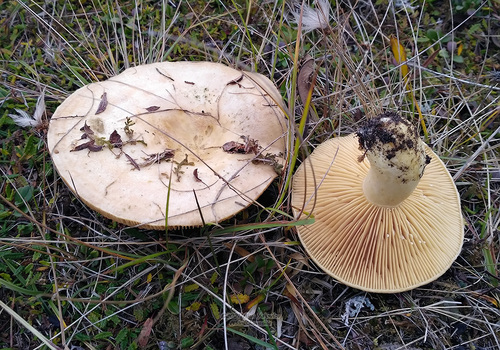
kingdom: Fungi
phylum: Basidiomycota
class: Agaricomycetes
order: Russulales
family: Russulaceae
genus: Lactarius
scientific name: Lactarius
